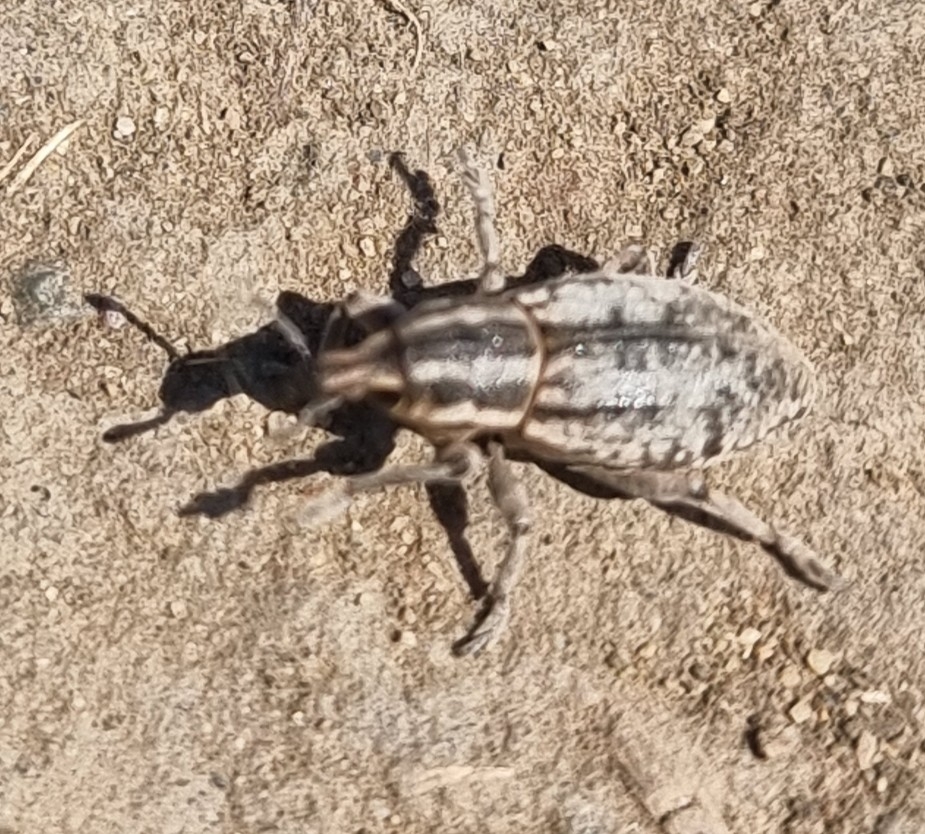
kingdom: Animalia
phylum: Arthropoda
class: Insecta
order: Coleoptera
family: Curculionidae
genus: Pseudocleonus
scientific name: Pseudocleonus cinereus
